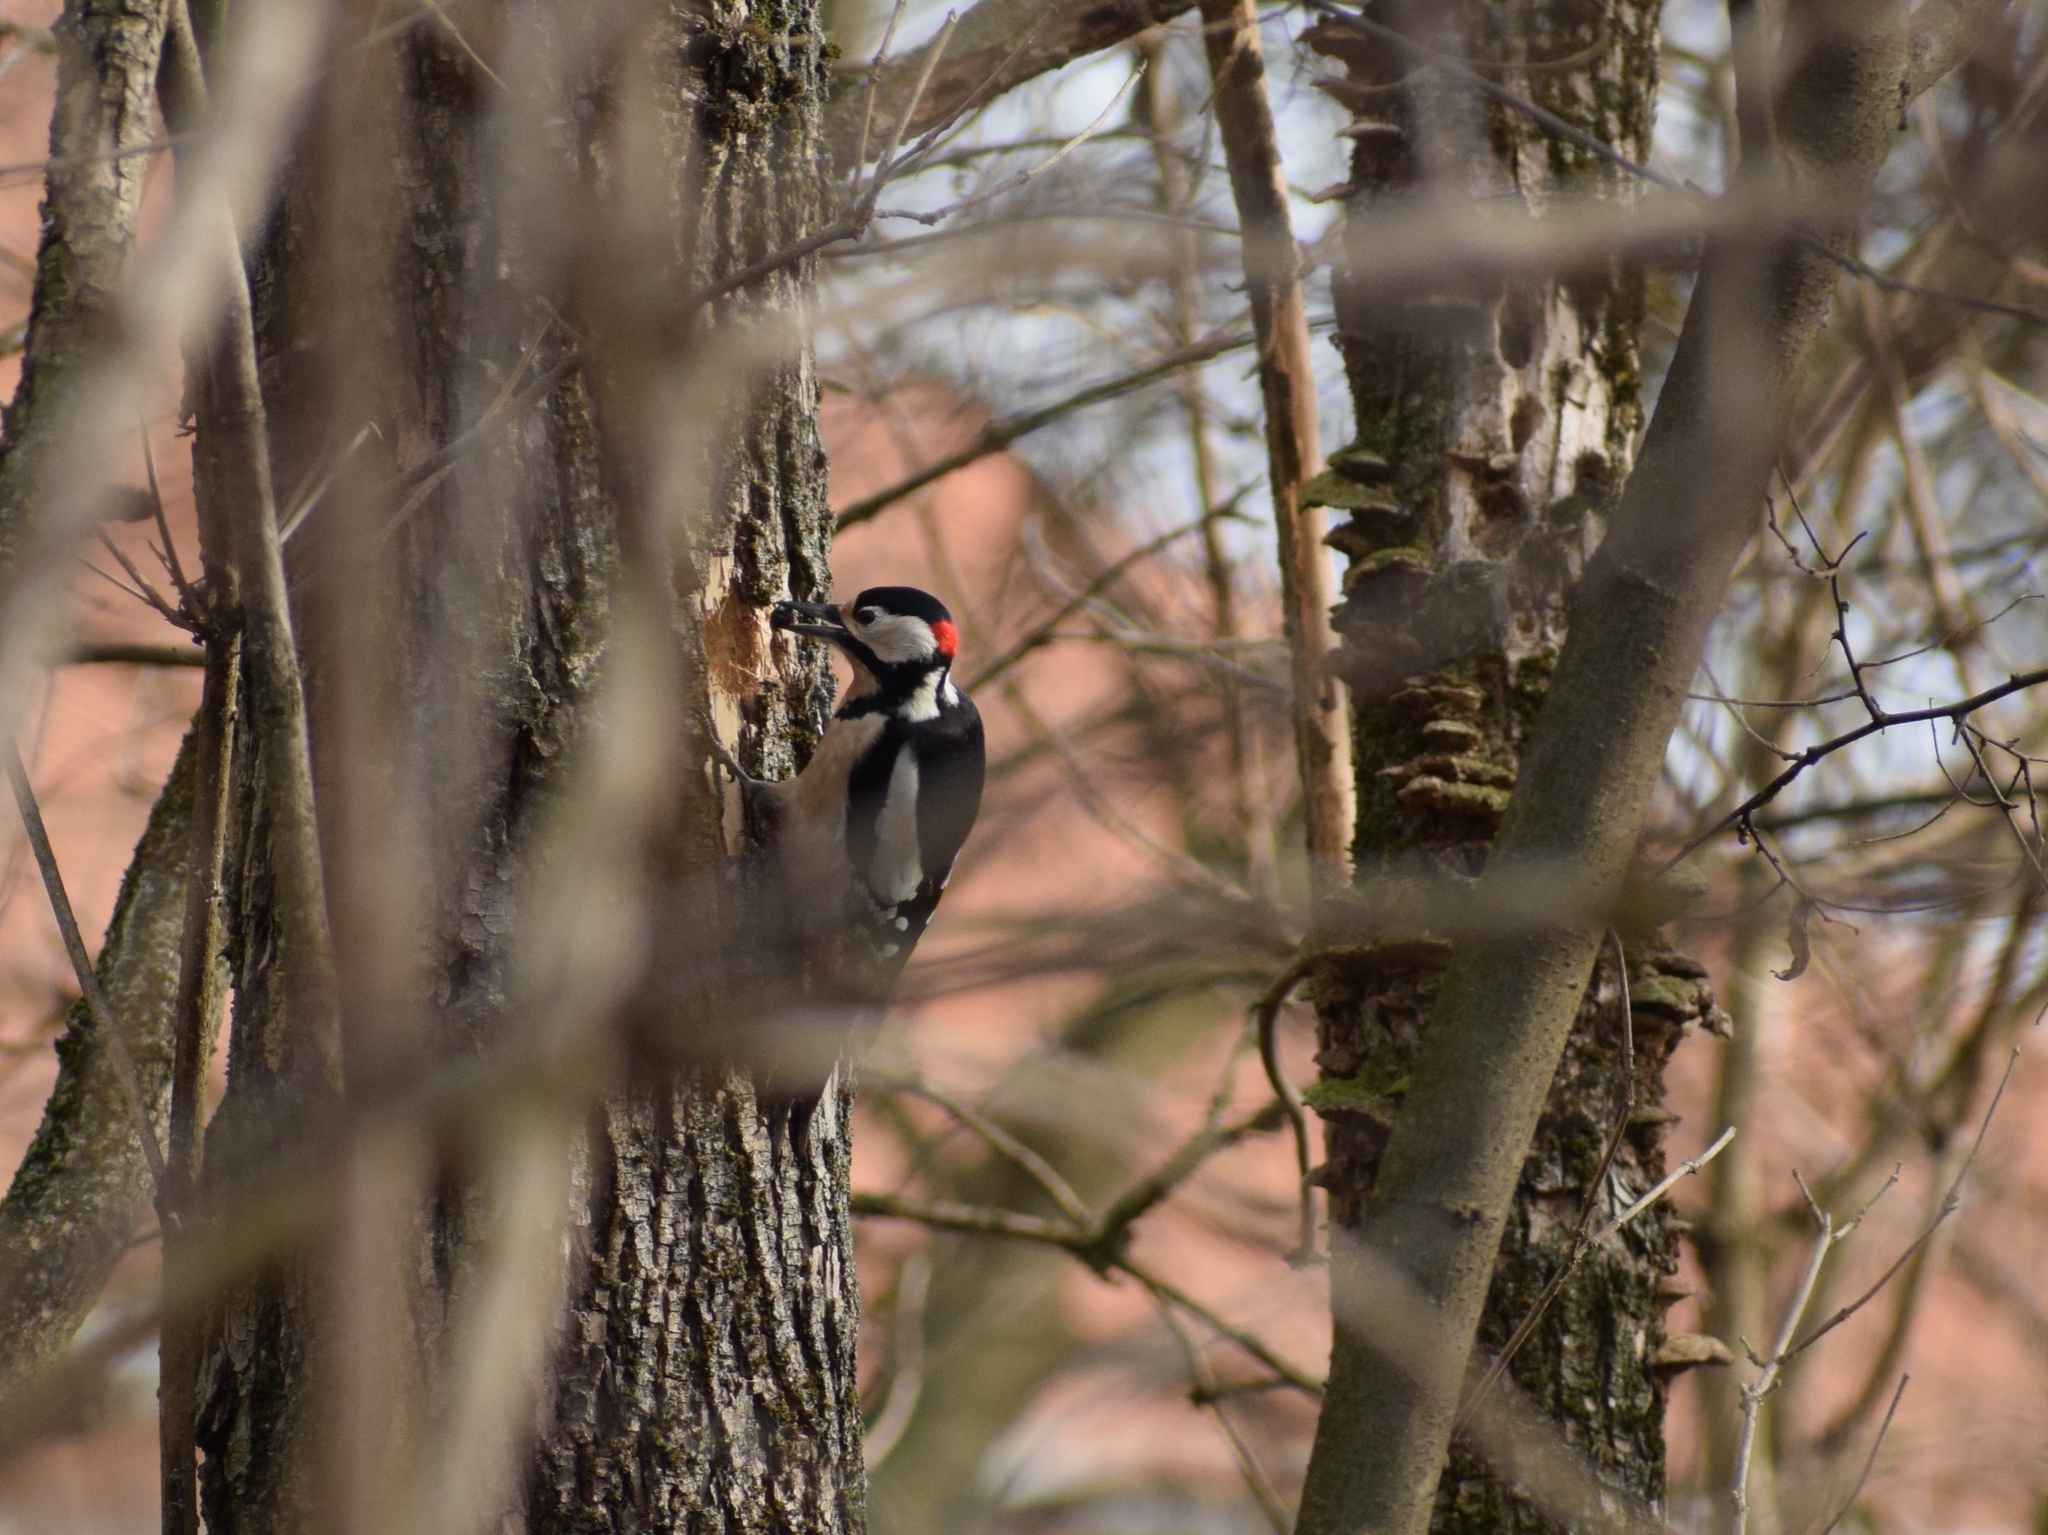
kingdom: Animalia
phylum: Chordata
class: Aves
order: Piciformes
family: Picidae
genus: Dendrocopos
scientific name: Dendrocopos major
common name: Great spotted woodpecker
